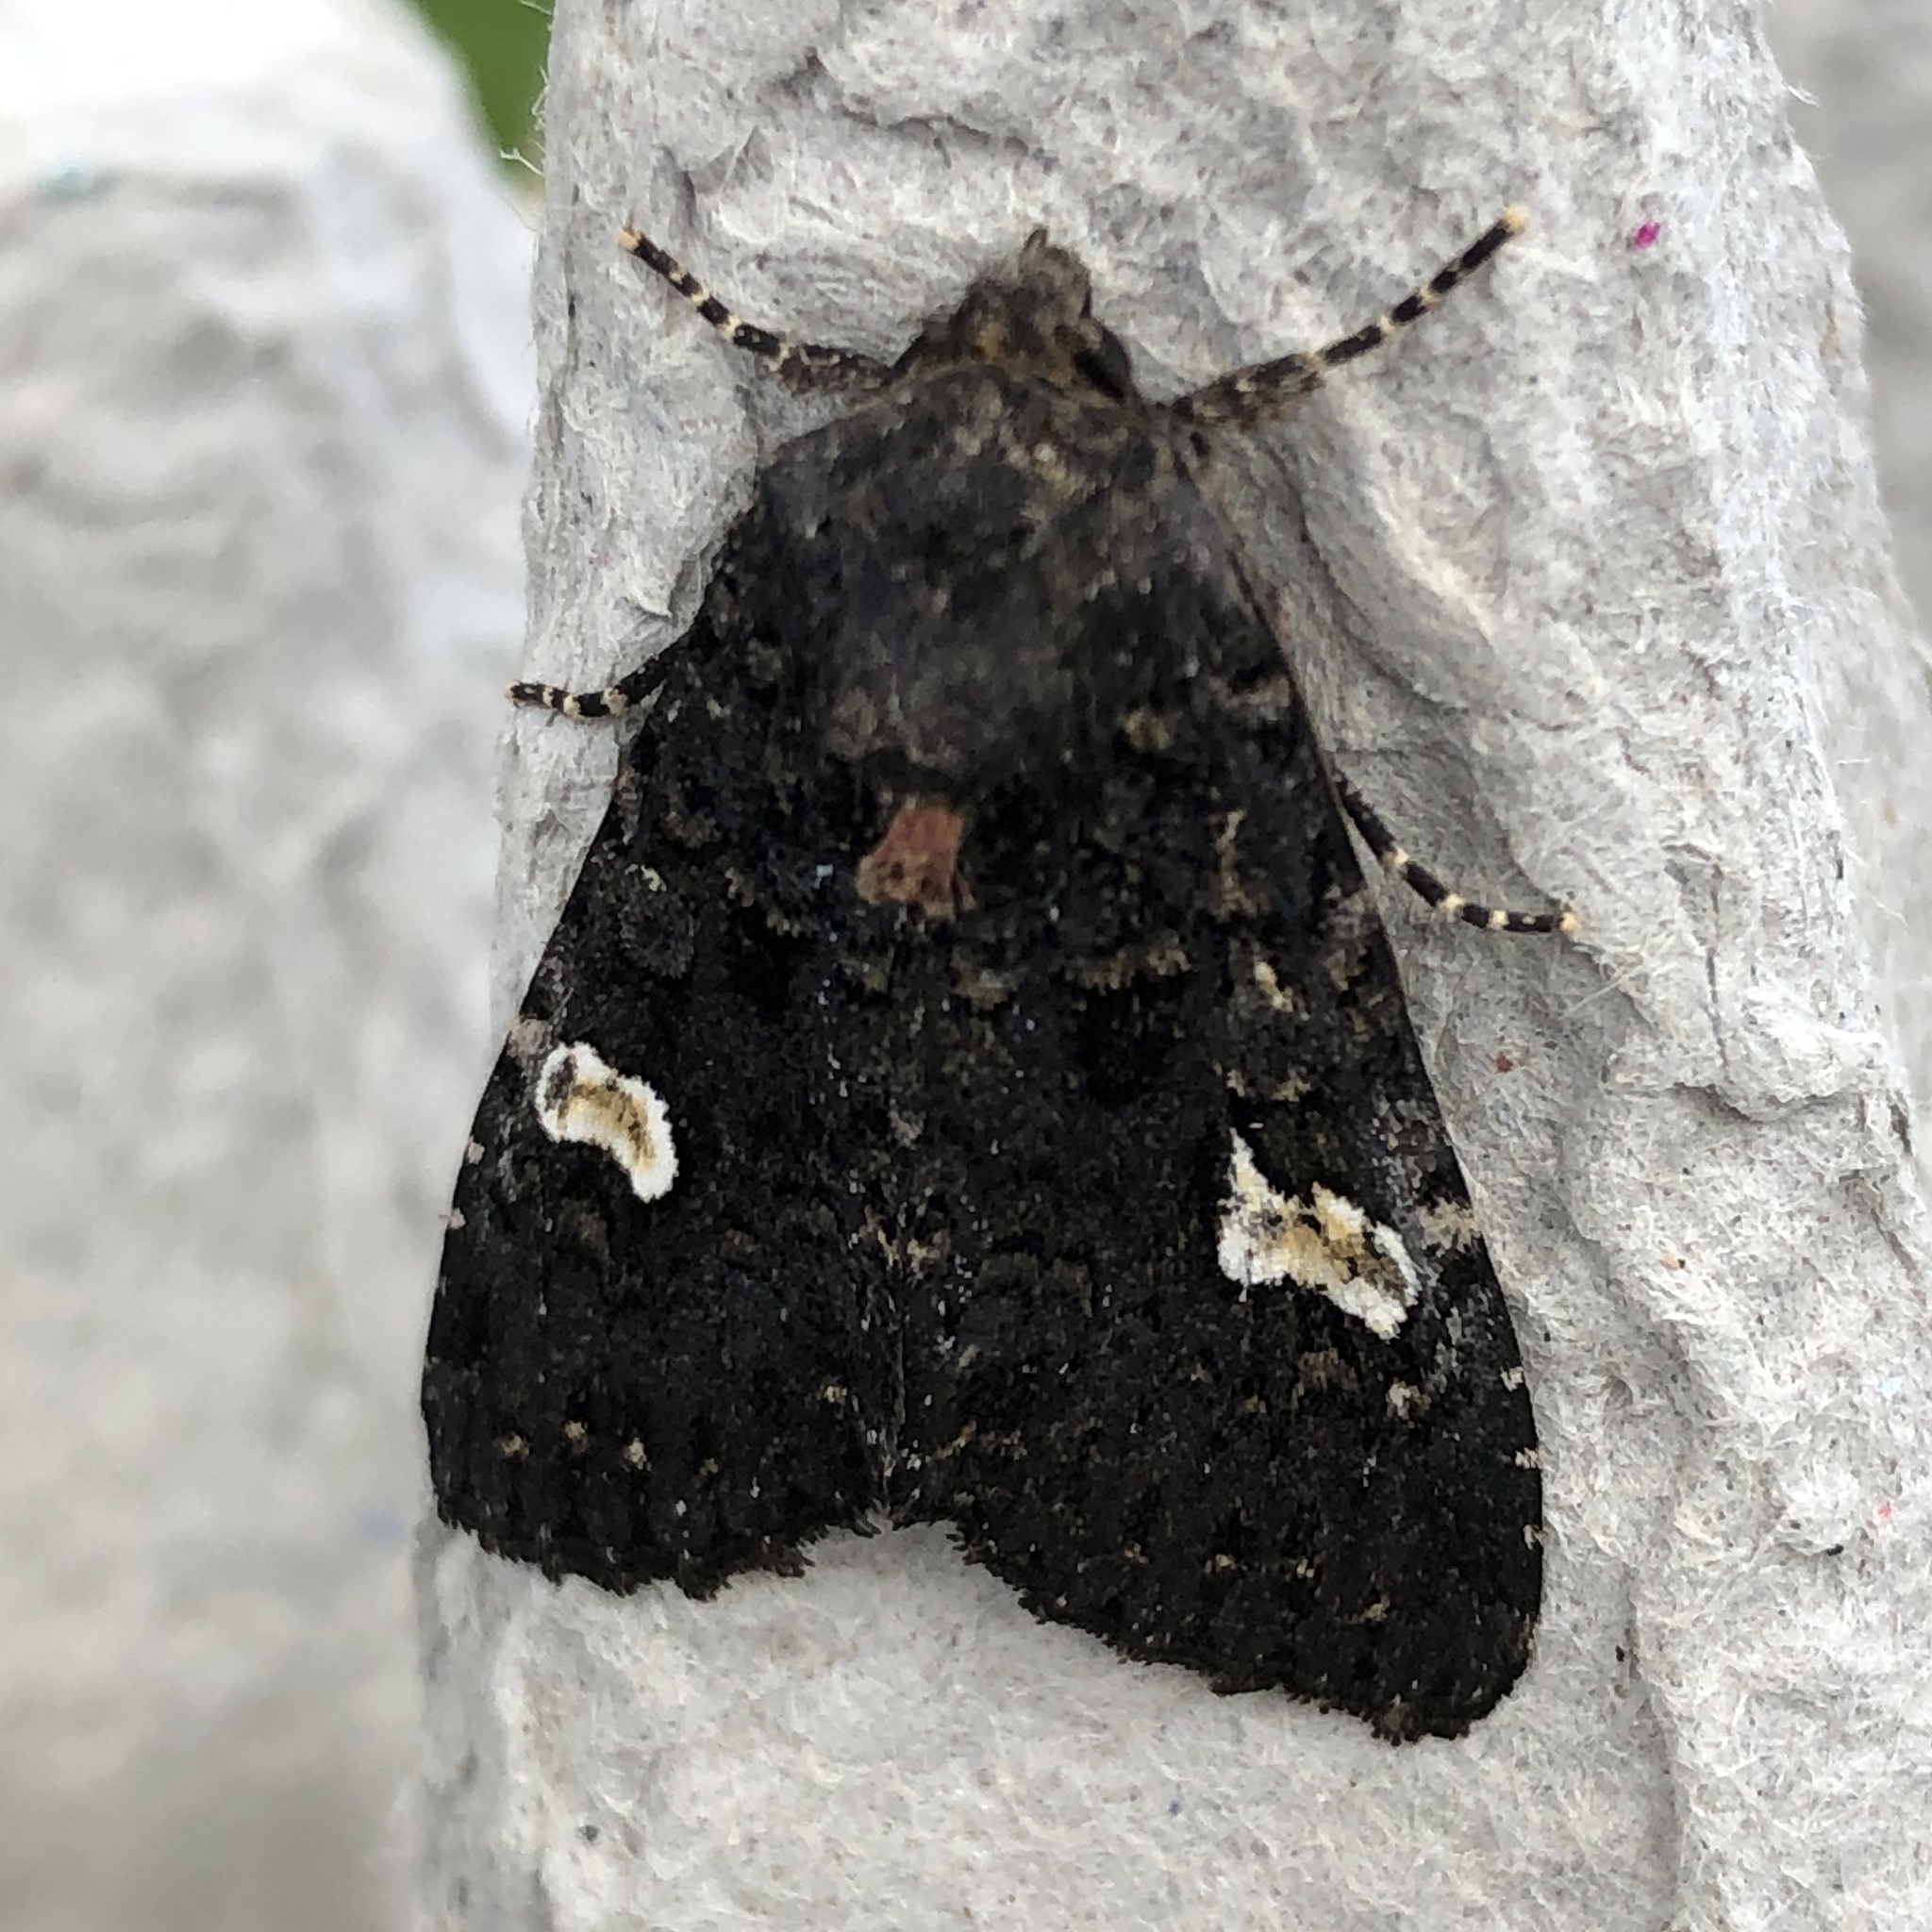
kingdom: Animalia
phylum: Arthropoda
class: Insecta
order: Lepidoptera
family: Noctuidae
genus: Melanchra
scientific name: Melanchra persicariae
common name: Dot moth
